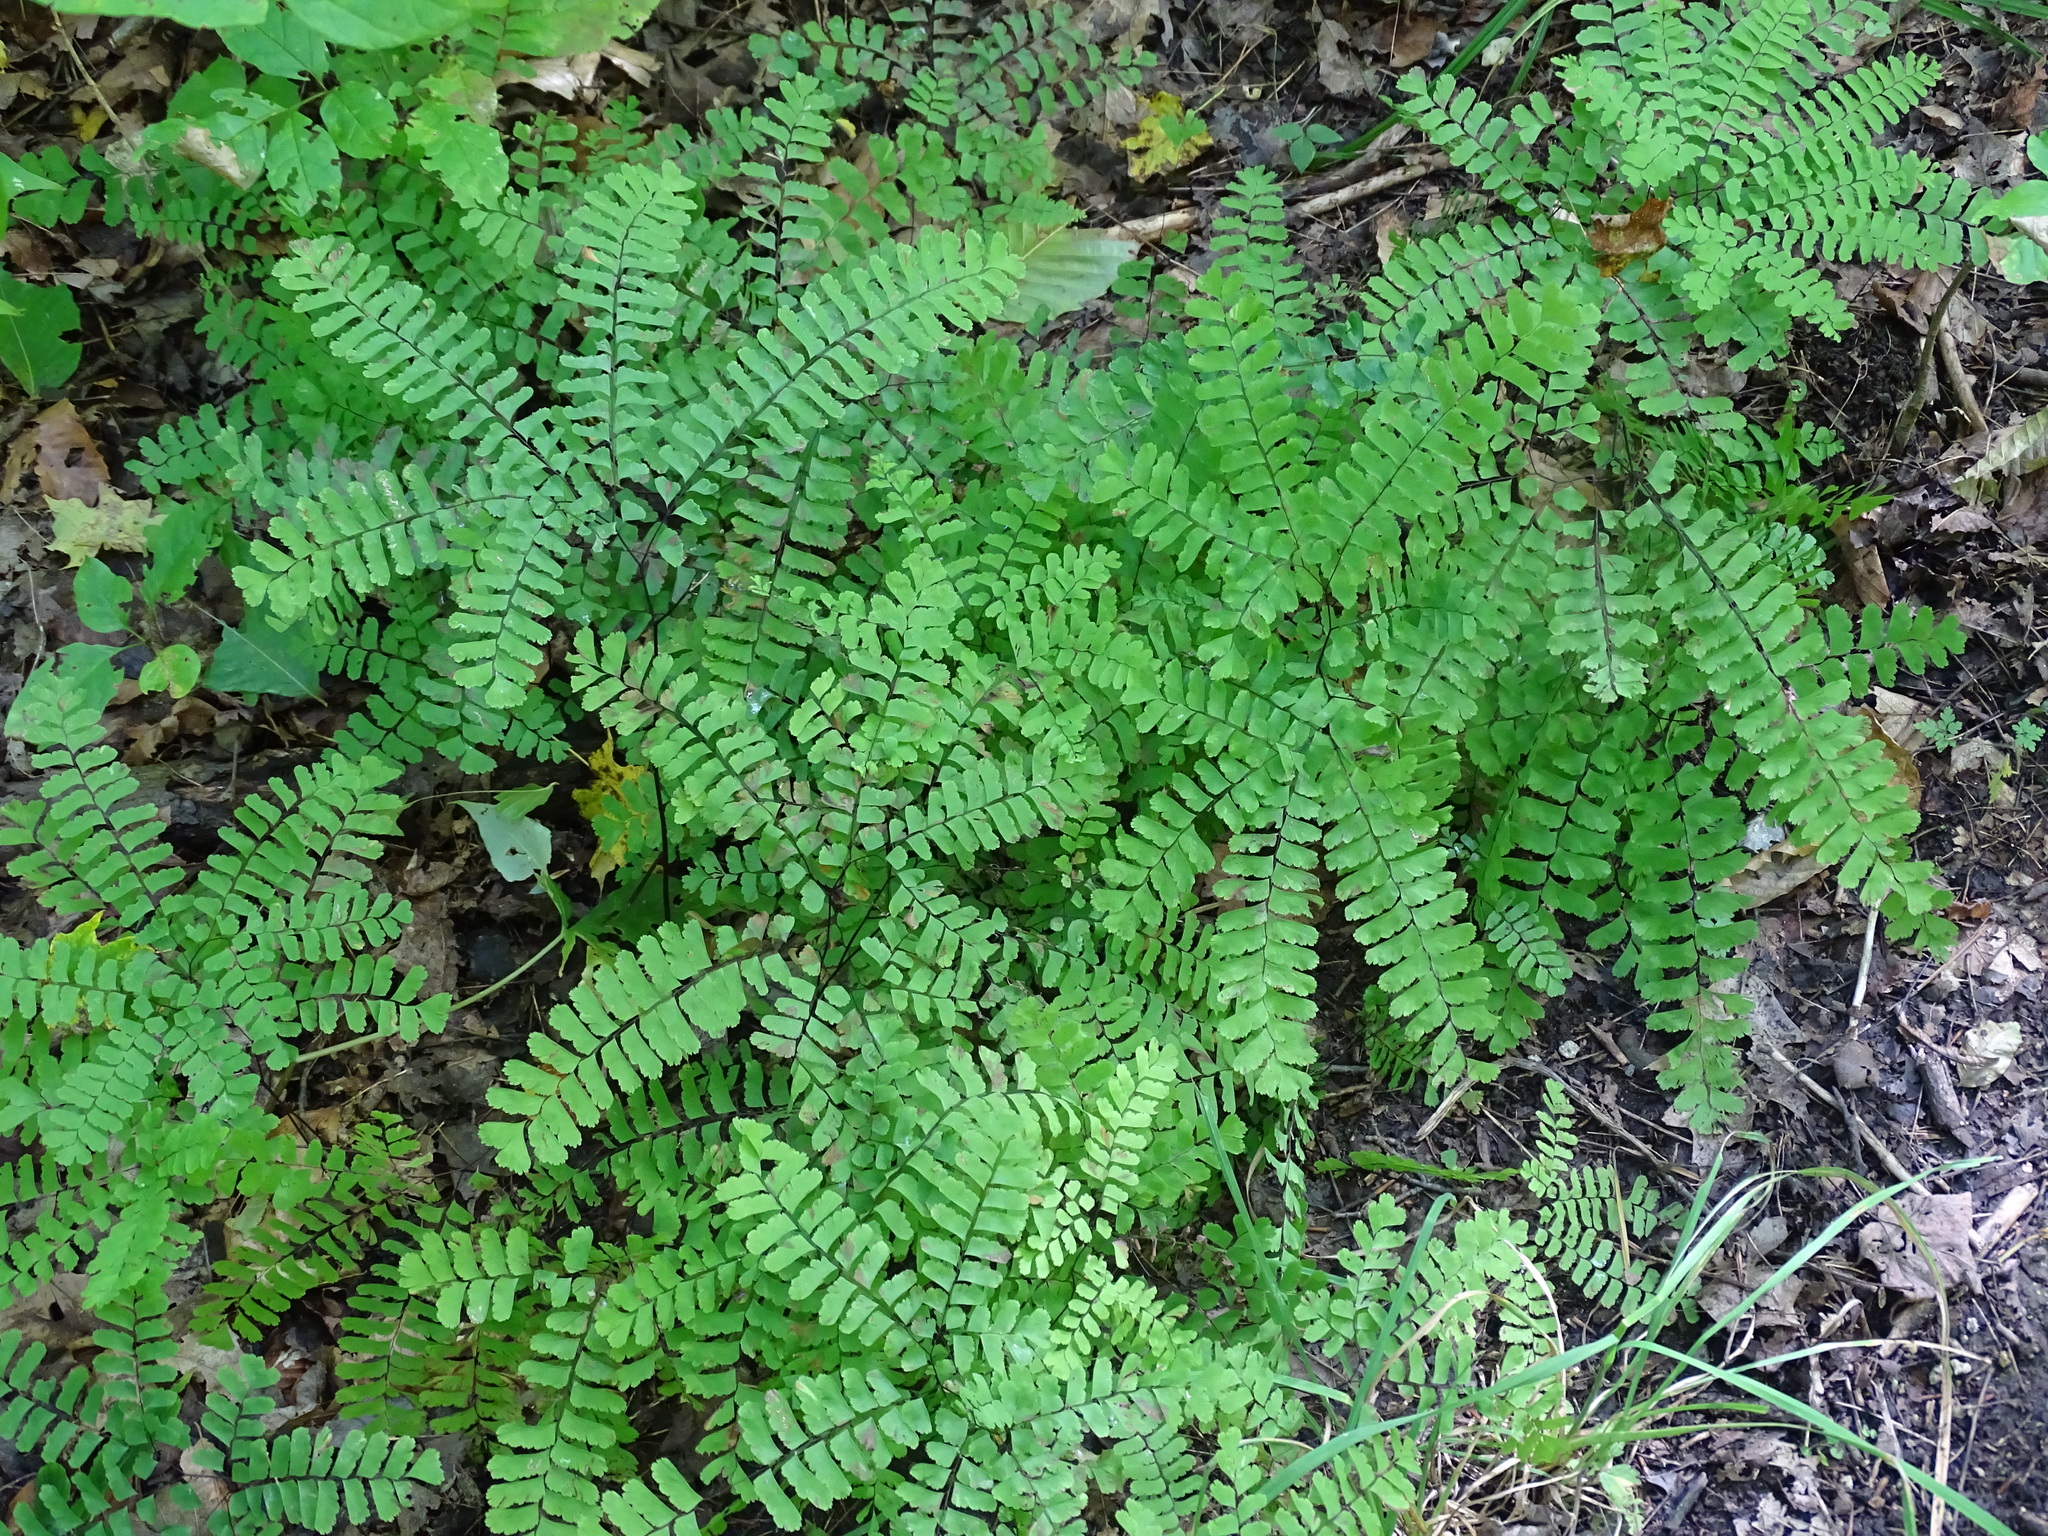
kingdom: Plantae
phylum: Tracheophyta
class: Polypodiopsida
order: Polypodiales
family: Pteridaceae
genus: Adiantum
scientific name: Adiantum pedatum
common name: Five-finger fern
